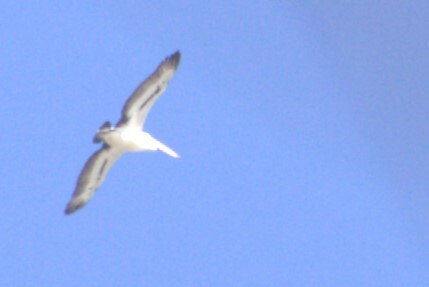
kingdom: Animalia
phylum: Chordata
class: Aves
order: Pelecaniformes
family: Pelecanidae
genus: Pelecanus
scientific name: Pelecanus conspicillatus
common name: Australian pelican
